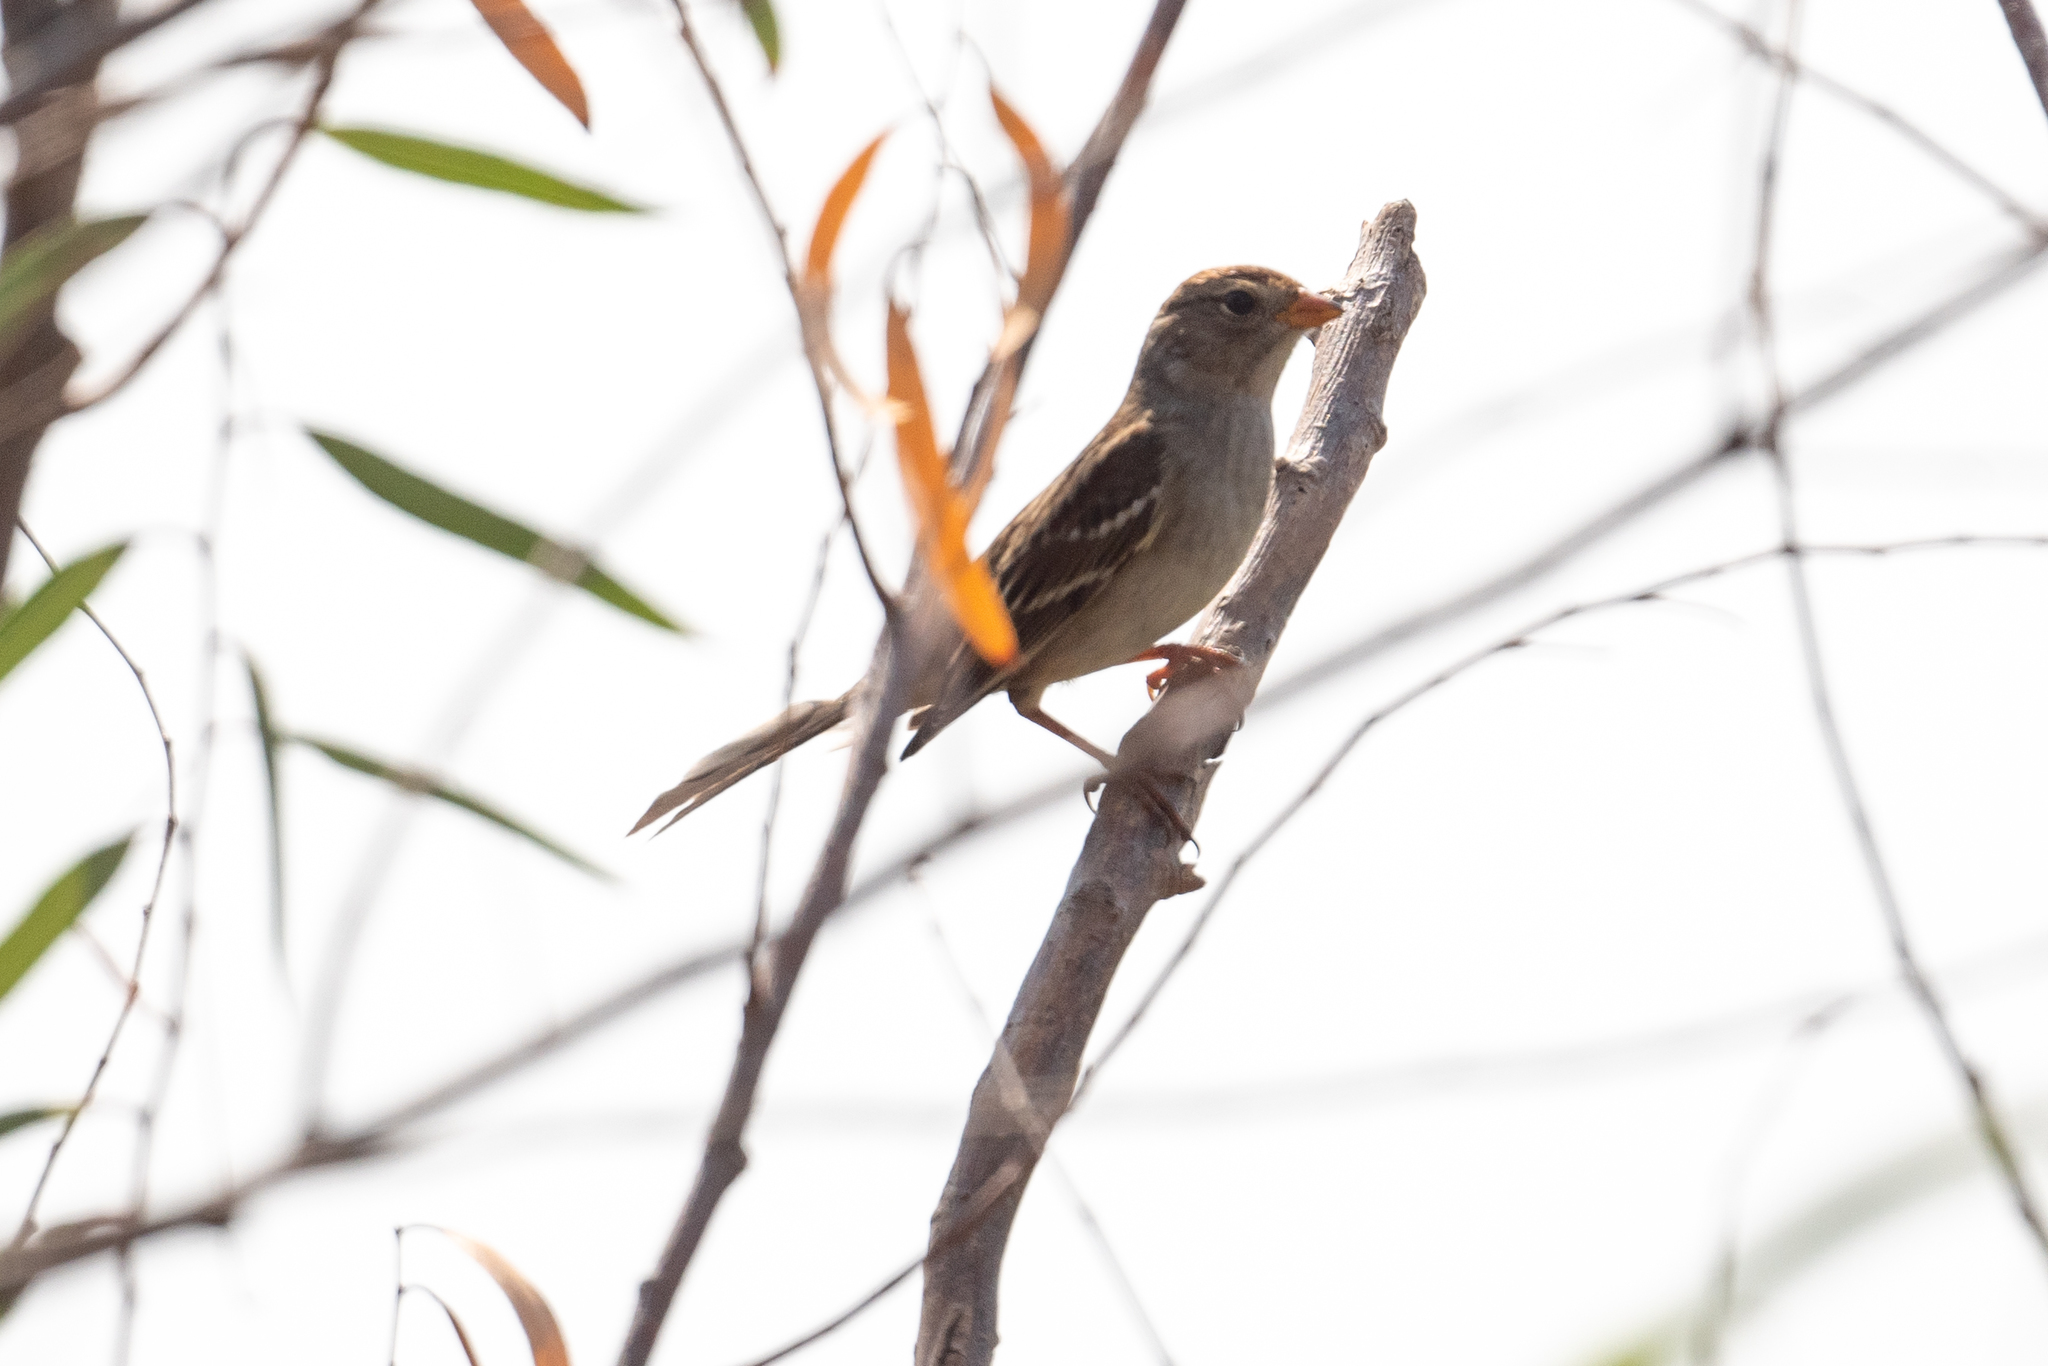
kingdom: Animalia
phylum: Chordata
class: Aves
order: Passeriformes
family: Passerellidae
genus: Zonotrichia
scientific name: Zonotrichia leucophrys
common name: White-crowned sparrow
